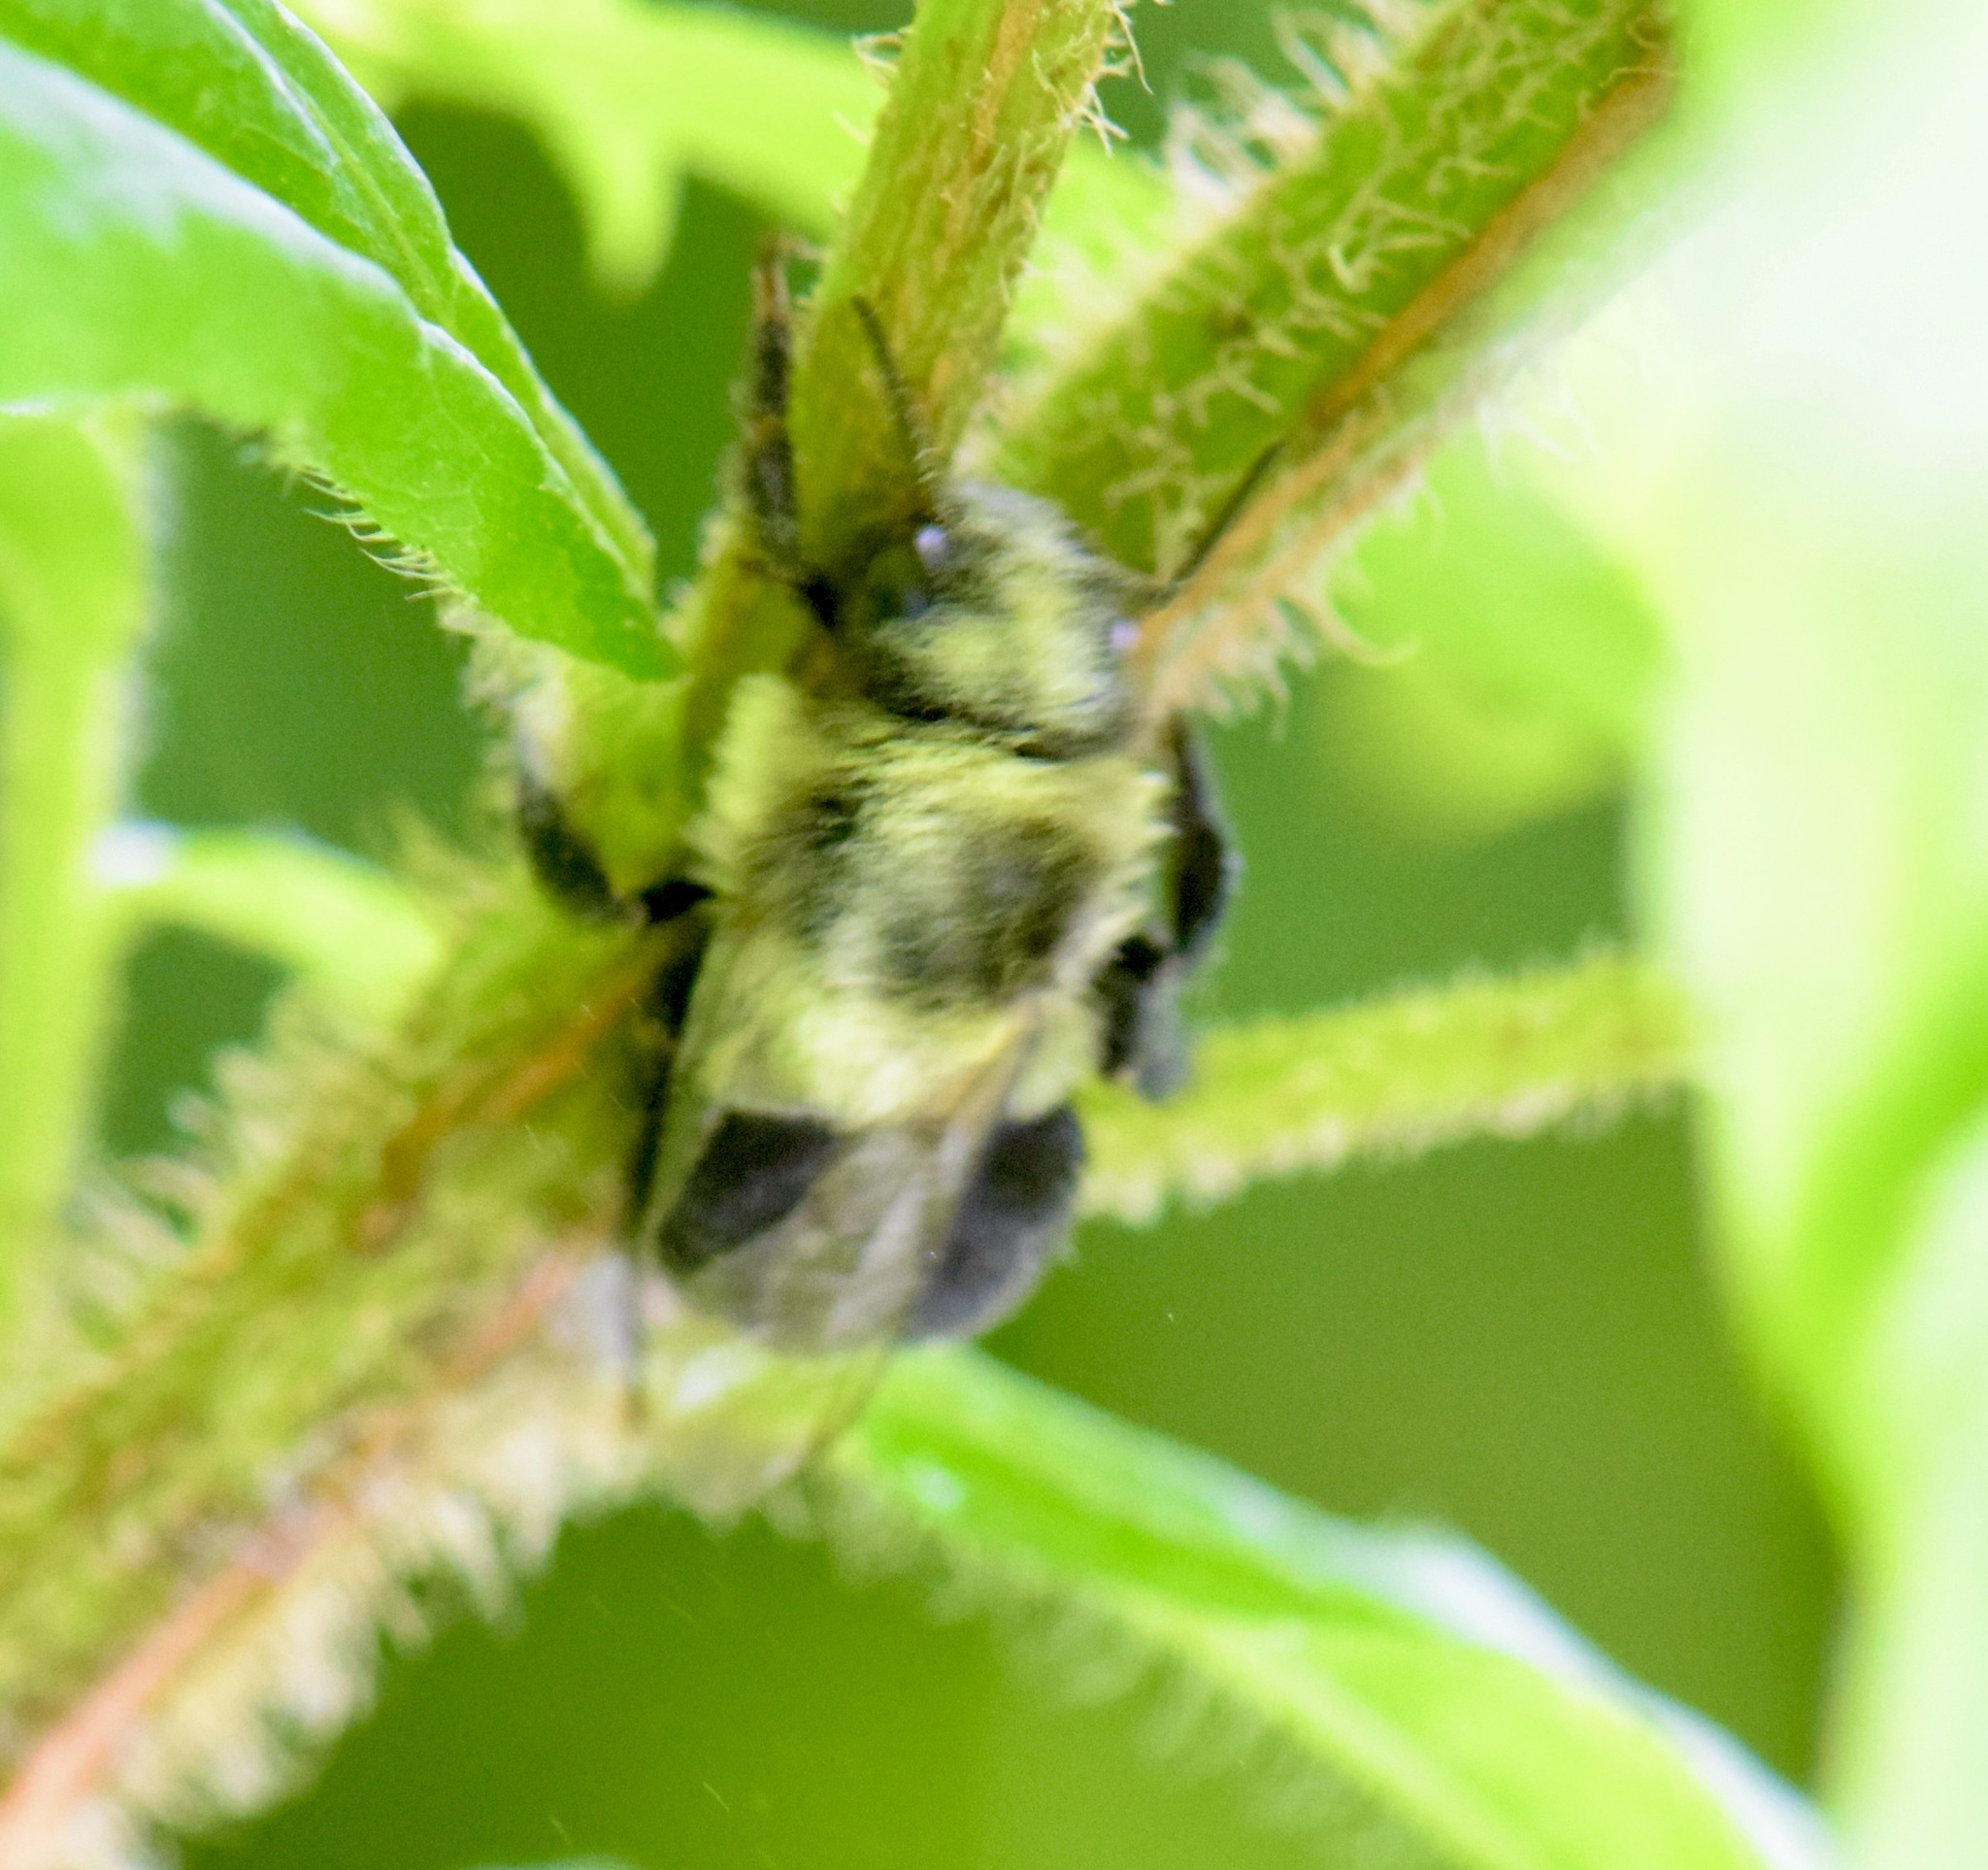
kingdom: Animalia
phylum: Arthropoda
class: Insecta
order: Hymenoptera
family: Apidae
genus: Bombus
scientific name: Bombus impatiens
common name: Common eastern bumble bee
